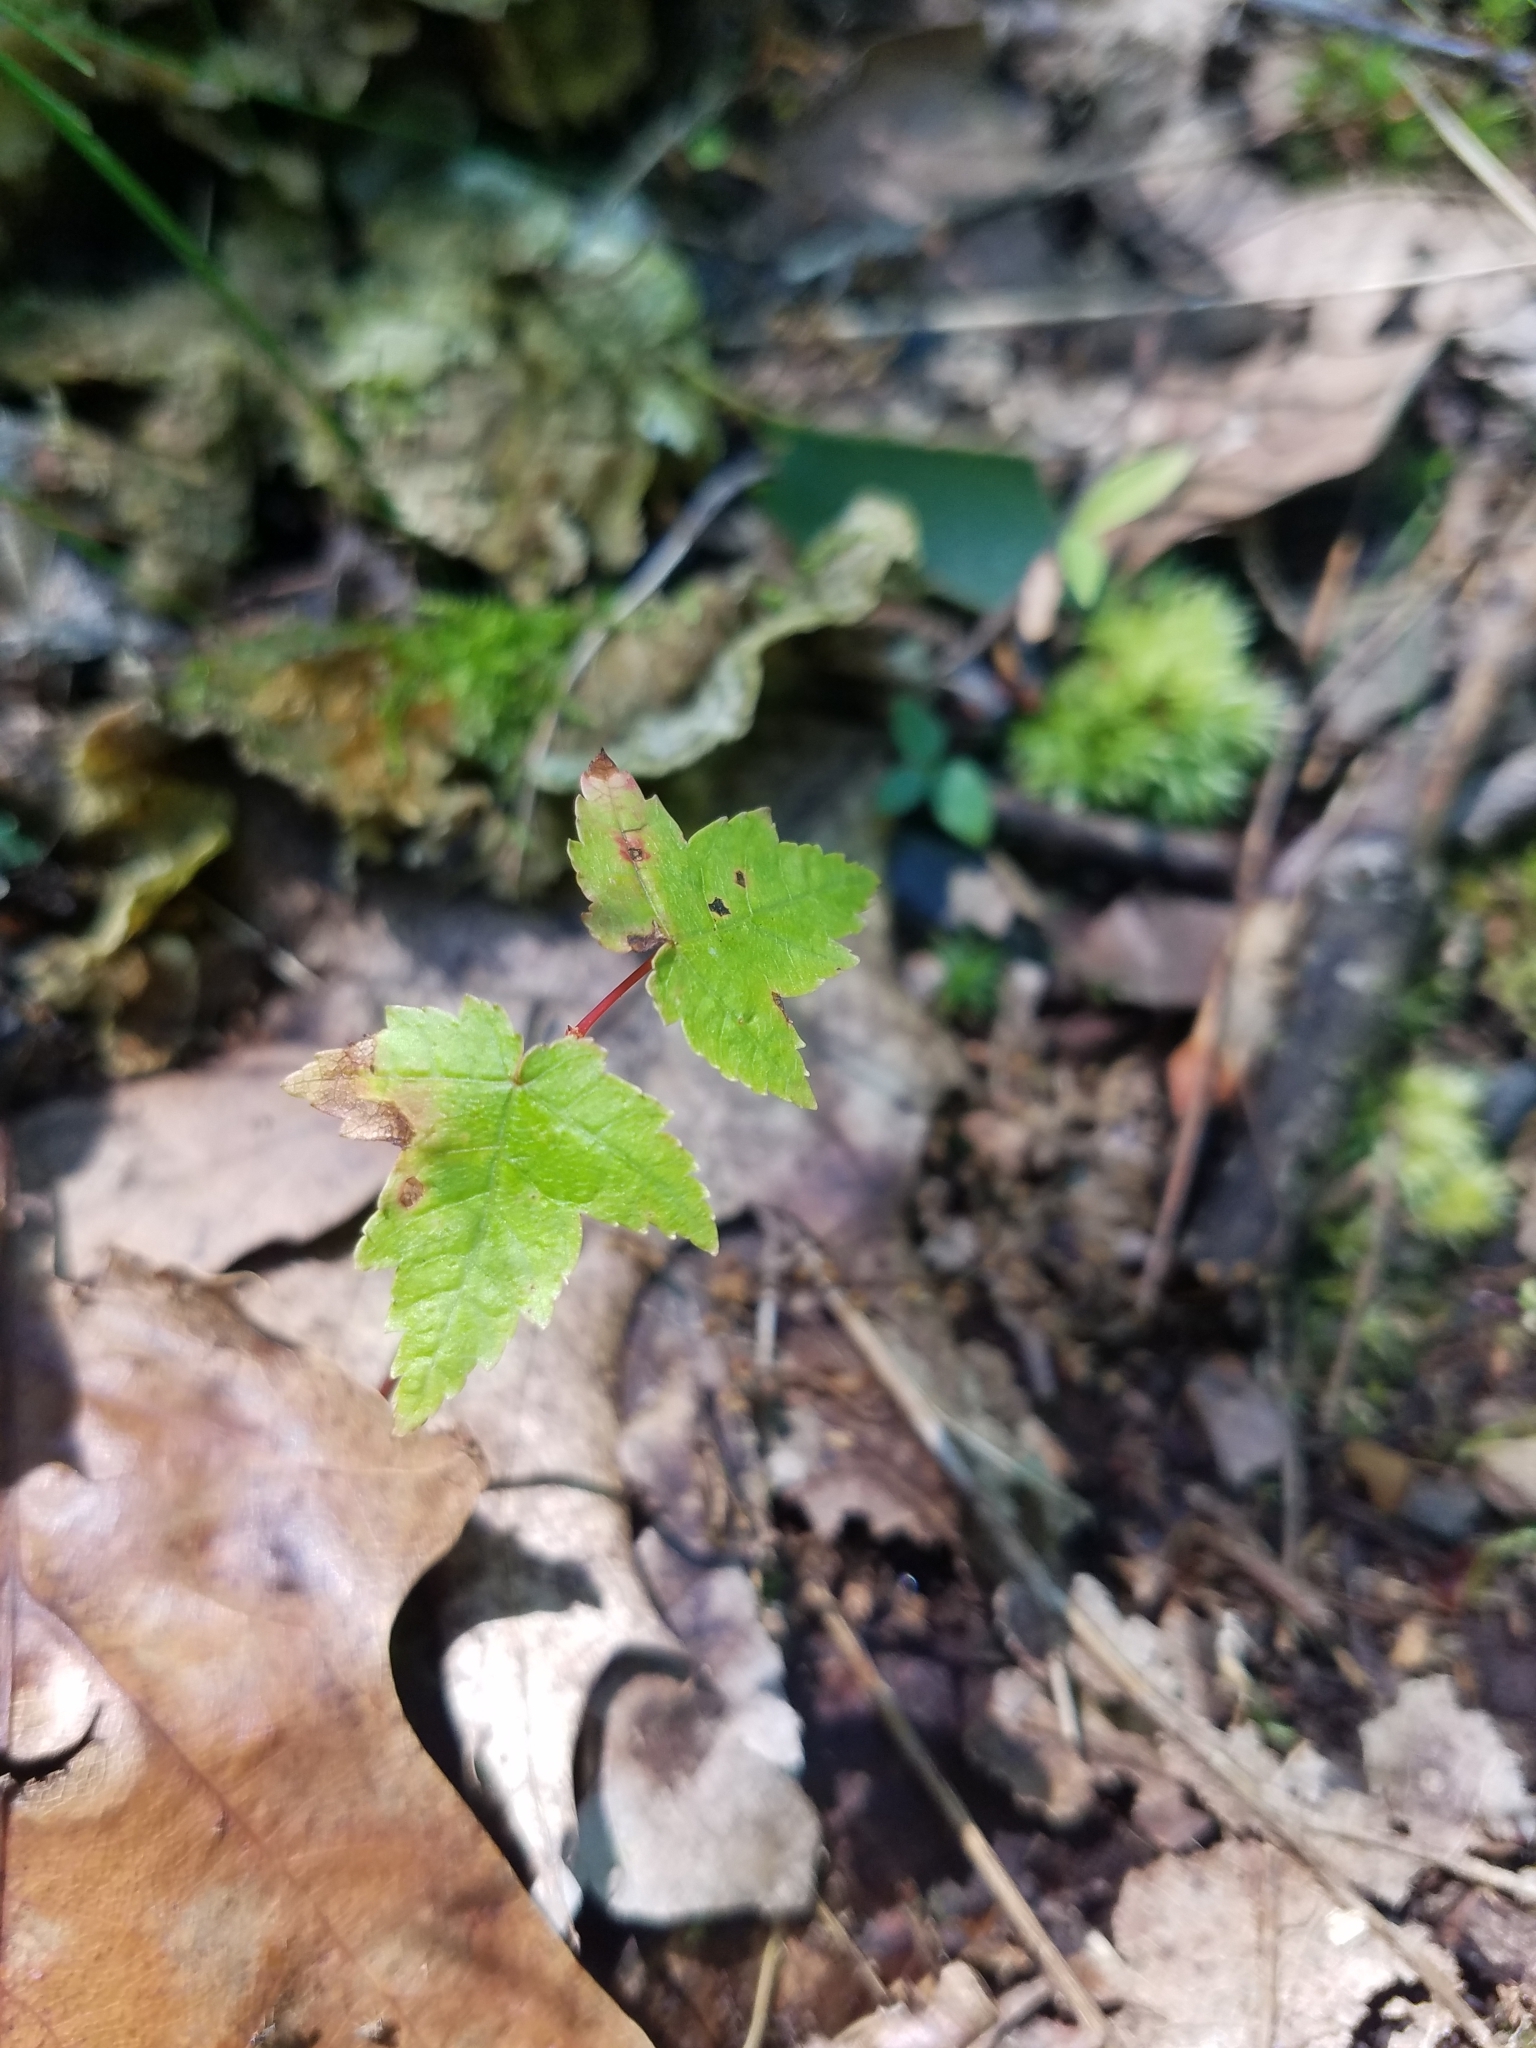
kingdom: Plantae
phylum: Tracheophyta
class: Magnoliopsida
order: Sapindales
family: Sapindaceae
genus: Acer
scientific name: Acer rubrum
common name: Red maple
